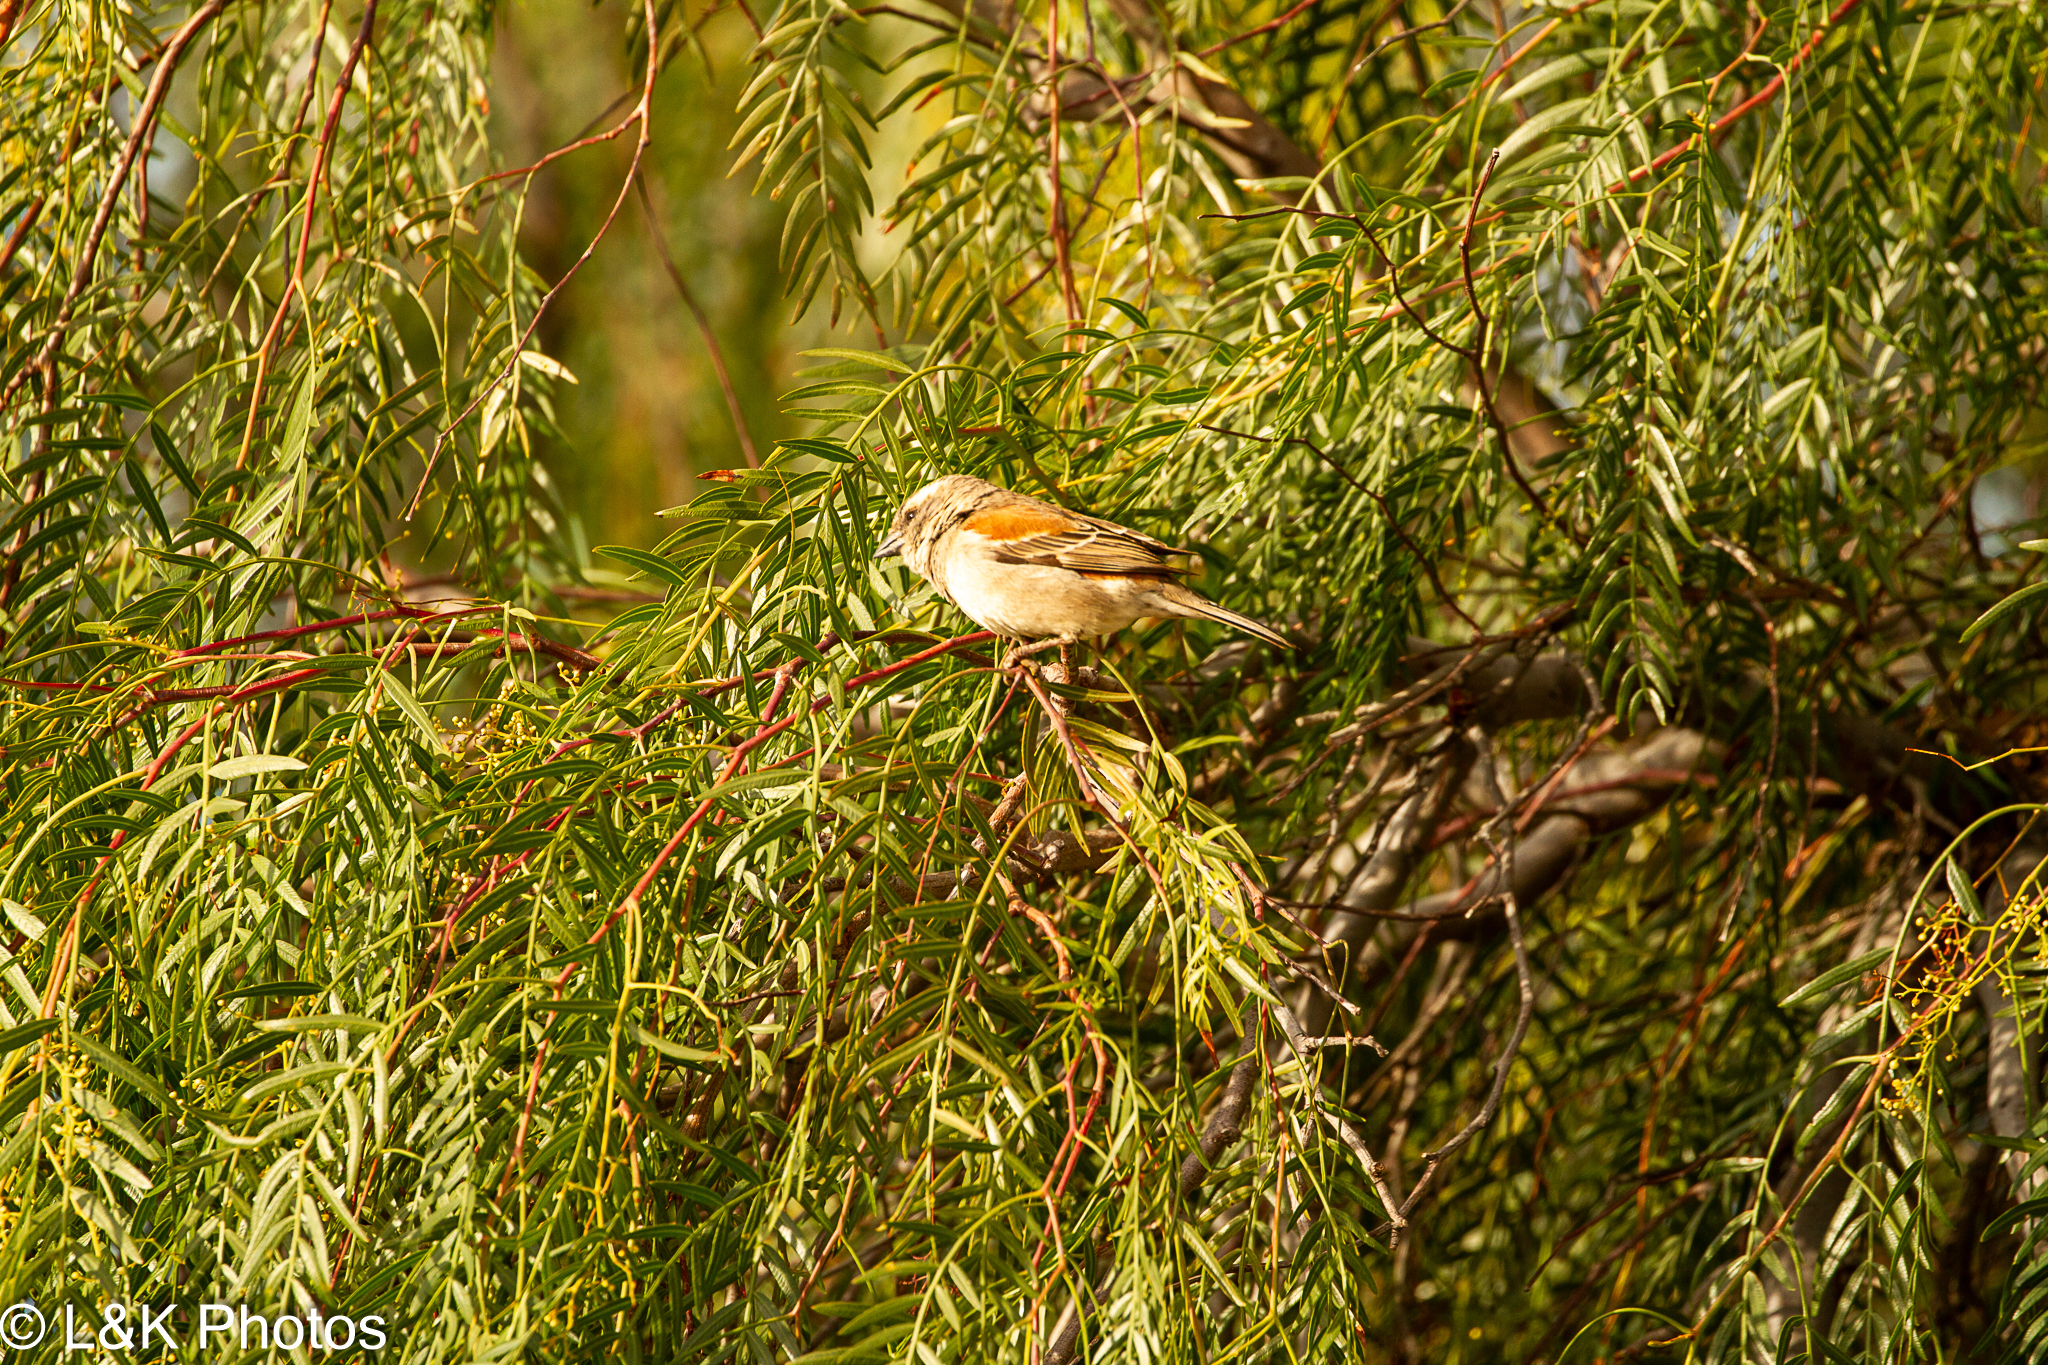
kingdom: Animalia
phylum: Chordata
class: Aves
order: Passeriformes
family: Passeridae
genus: Passer
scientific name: Passer melanurus
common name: Cape sparrow
